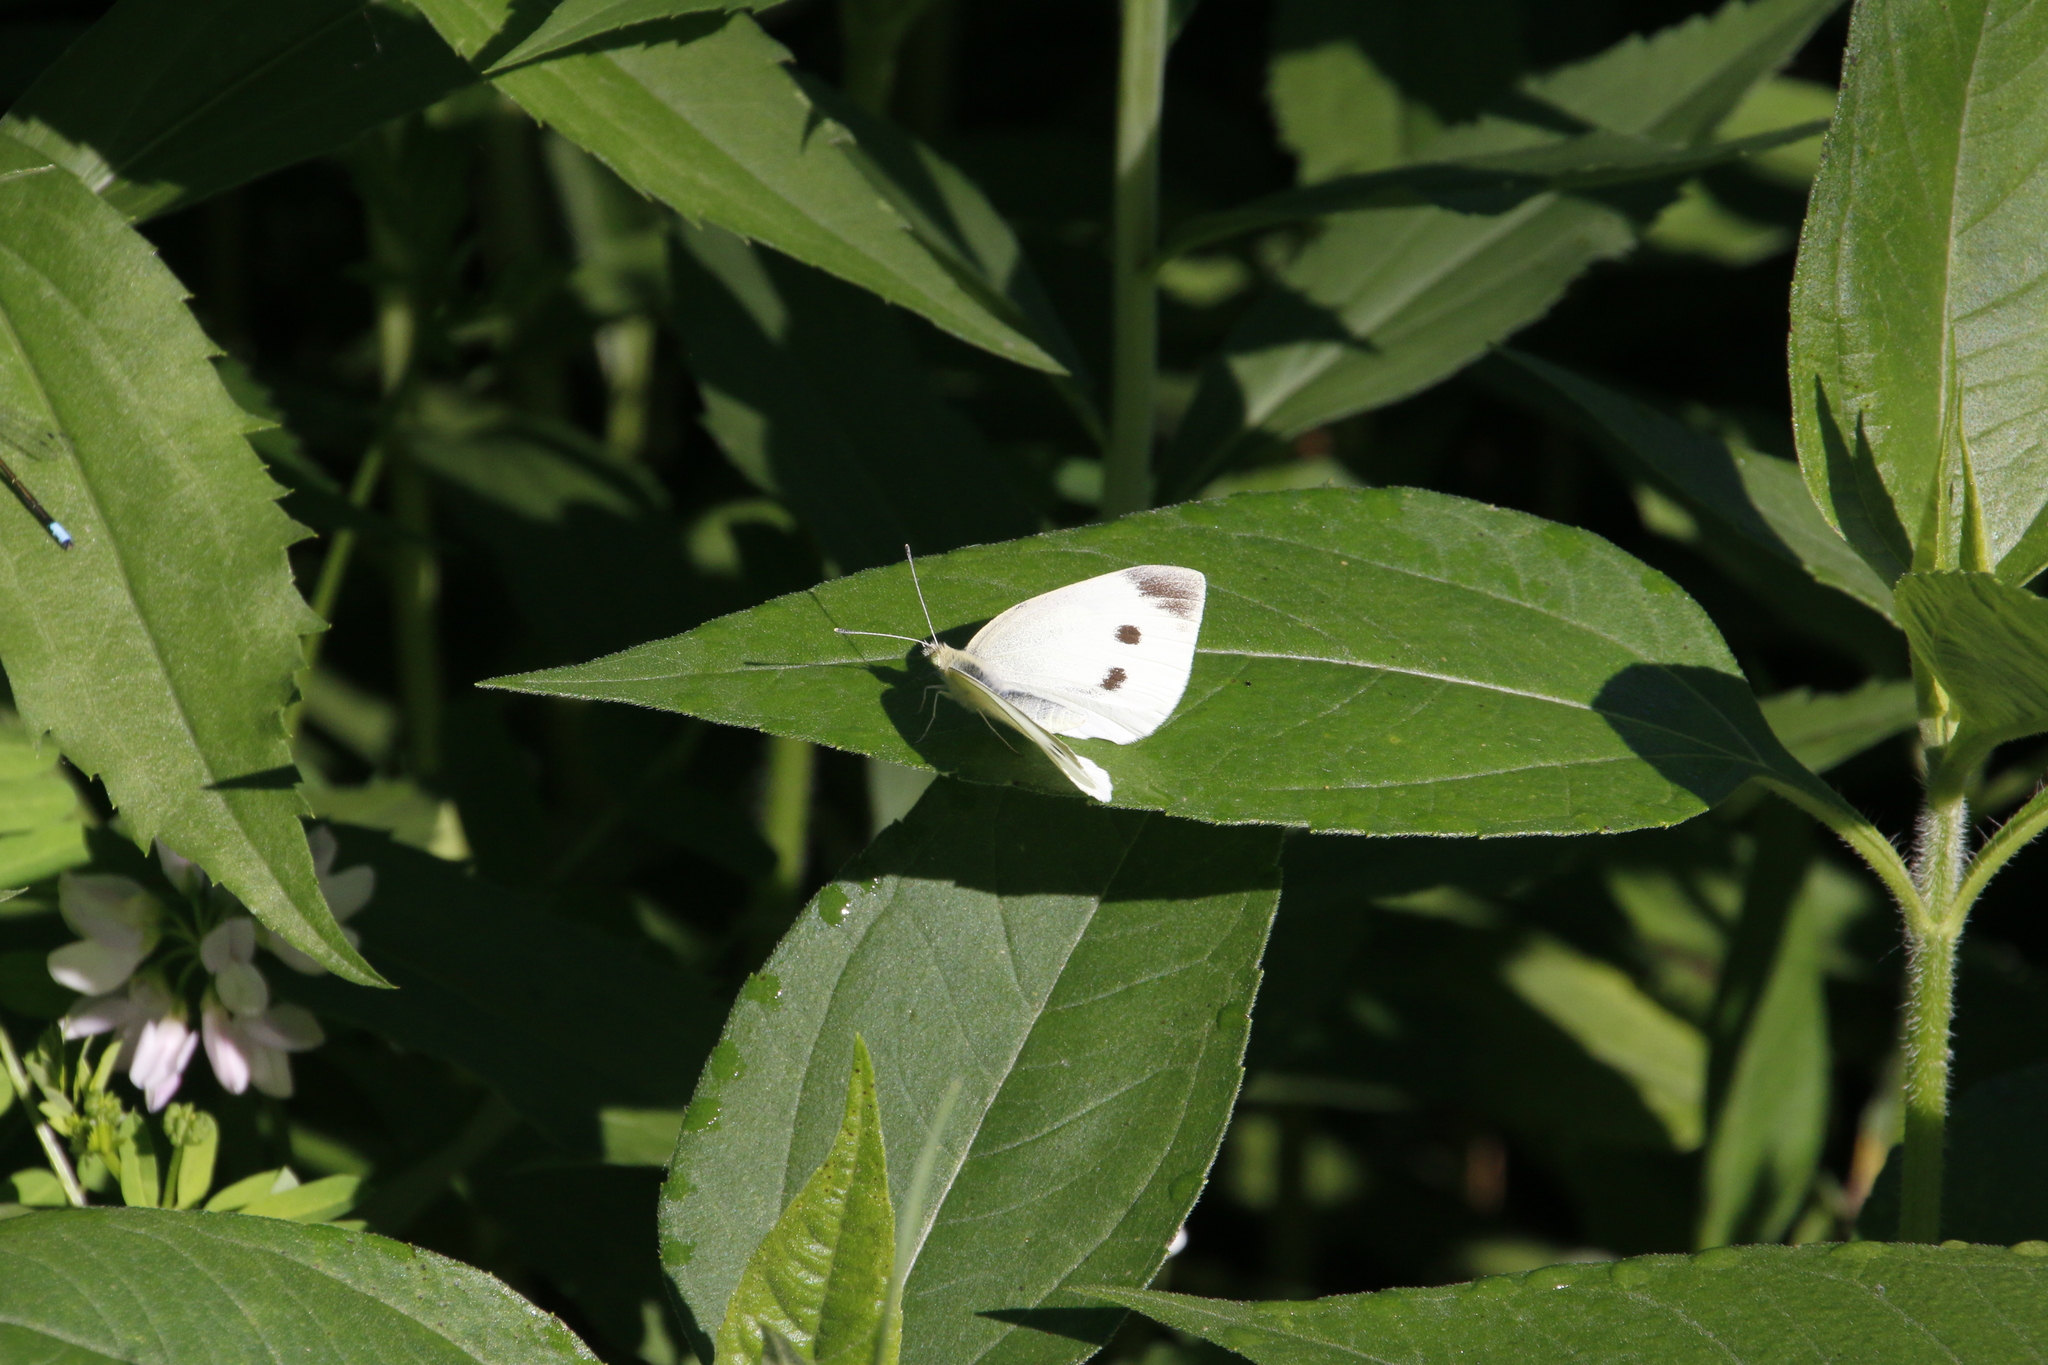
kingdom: Animalia
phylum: Arthropoda
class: Insecta
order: Lepidoptera
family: Pieridae
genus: Pieris
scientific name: Pieris rapae
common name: Small white
